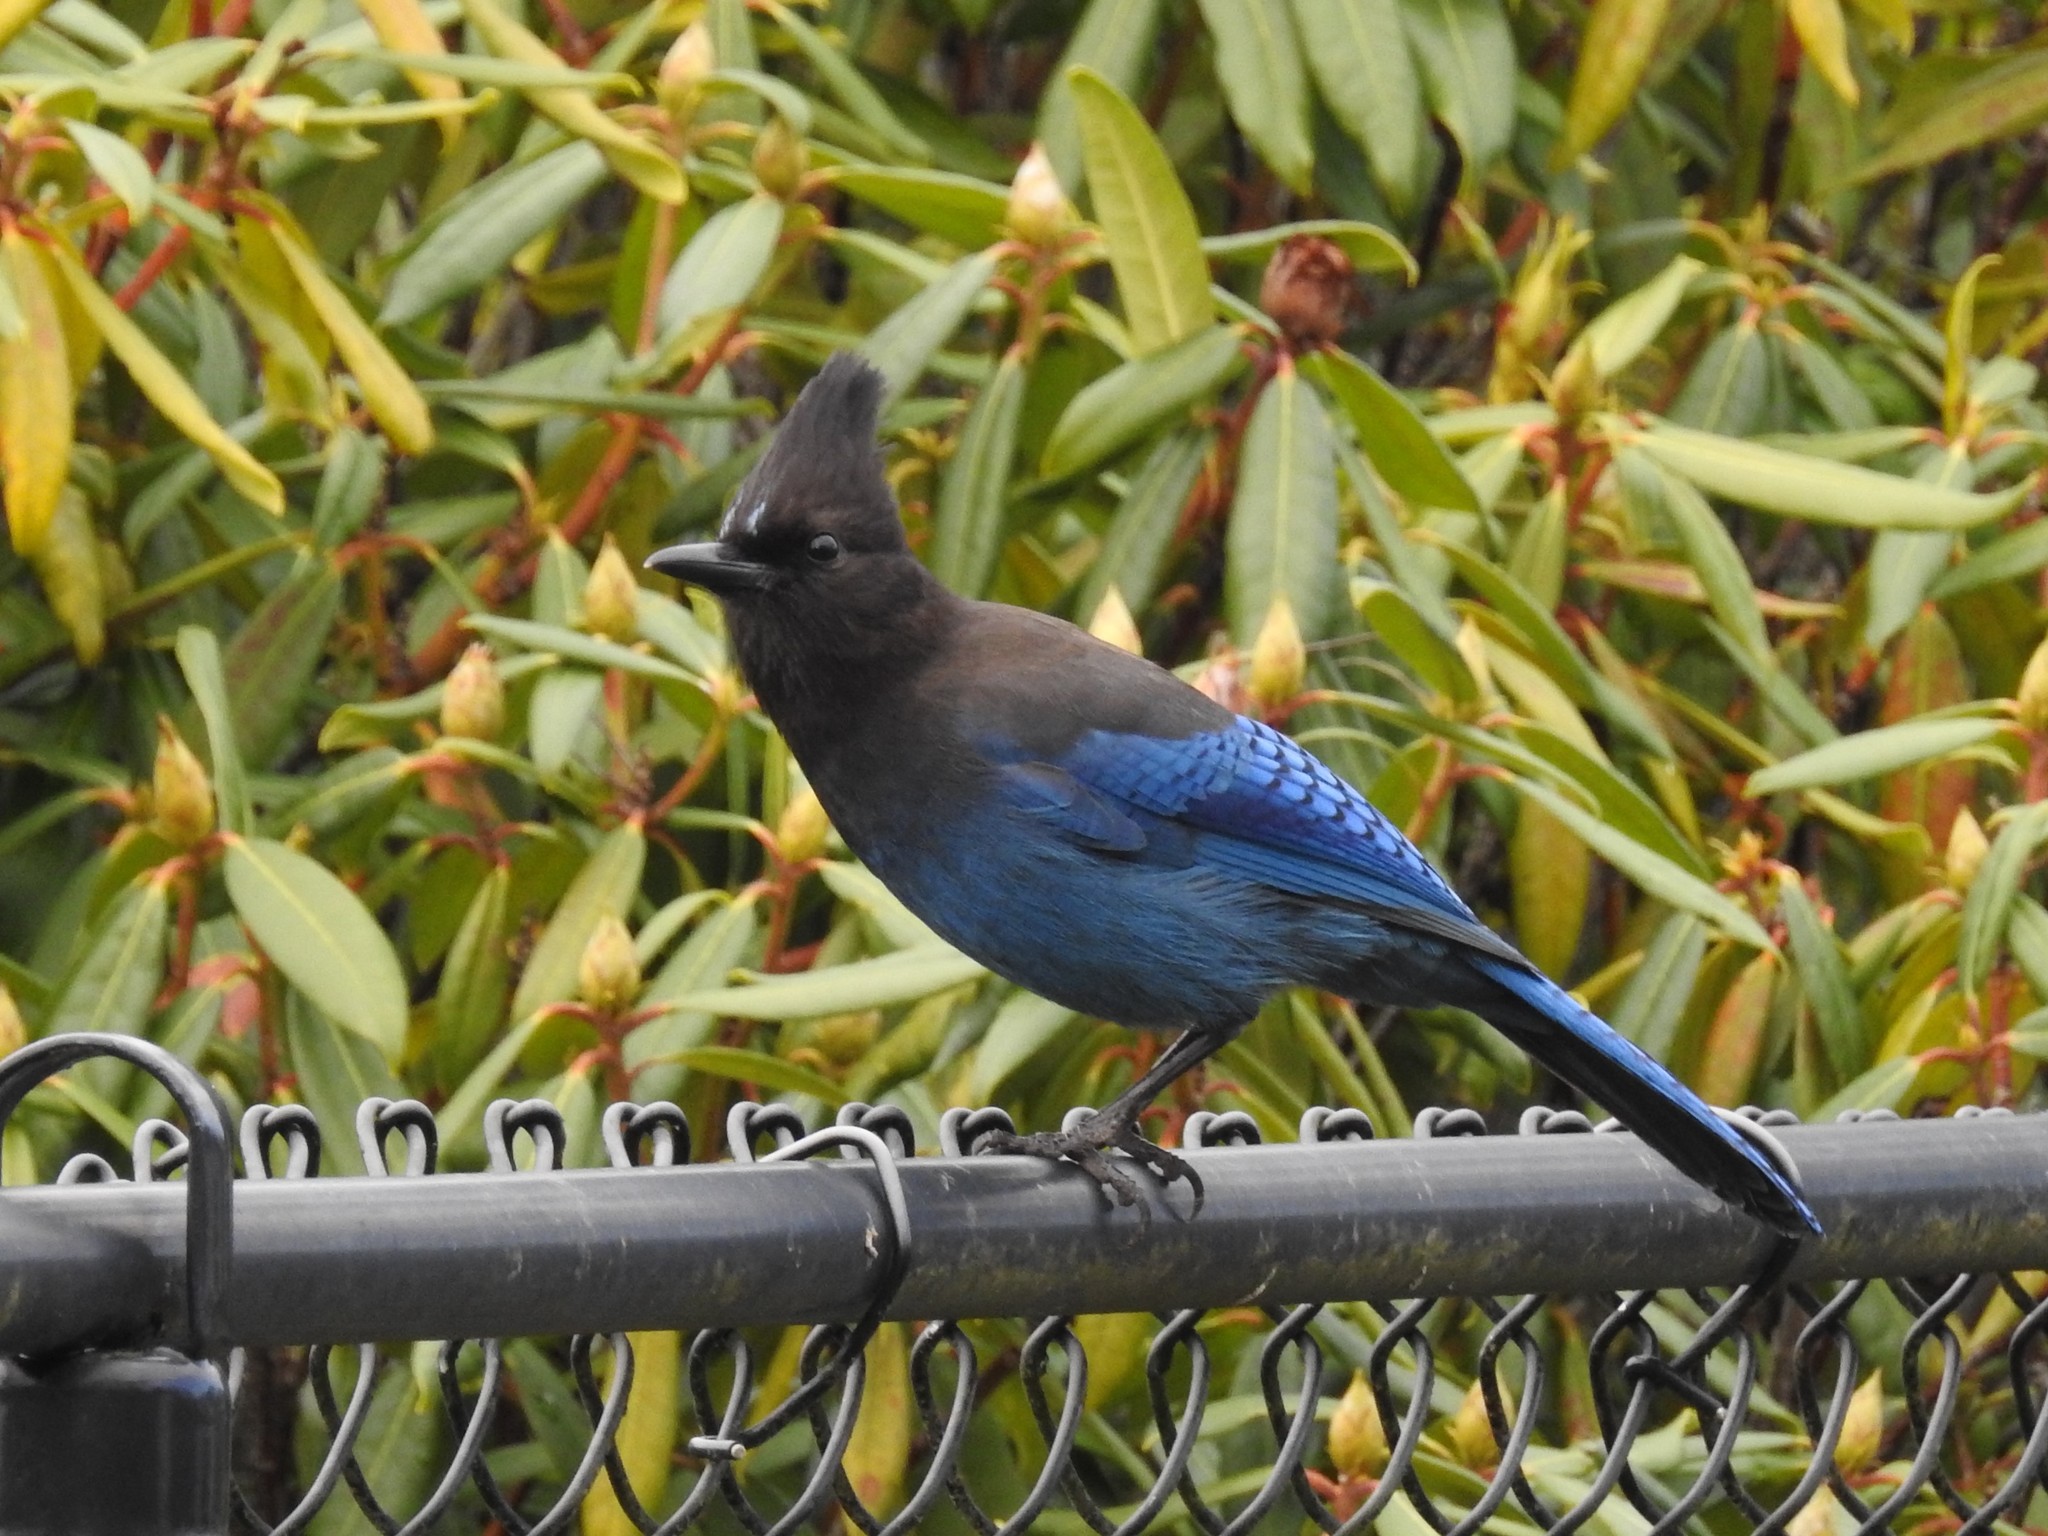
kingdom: Animalia
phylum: Chordata
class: Aves
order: Passeriformes
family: Corvidae
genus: Cyanocitta
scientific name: Cyanocitta stelleri
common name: Steller's jay
